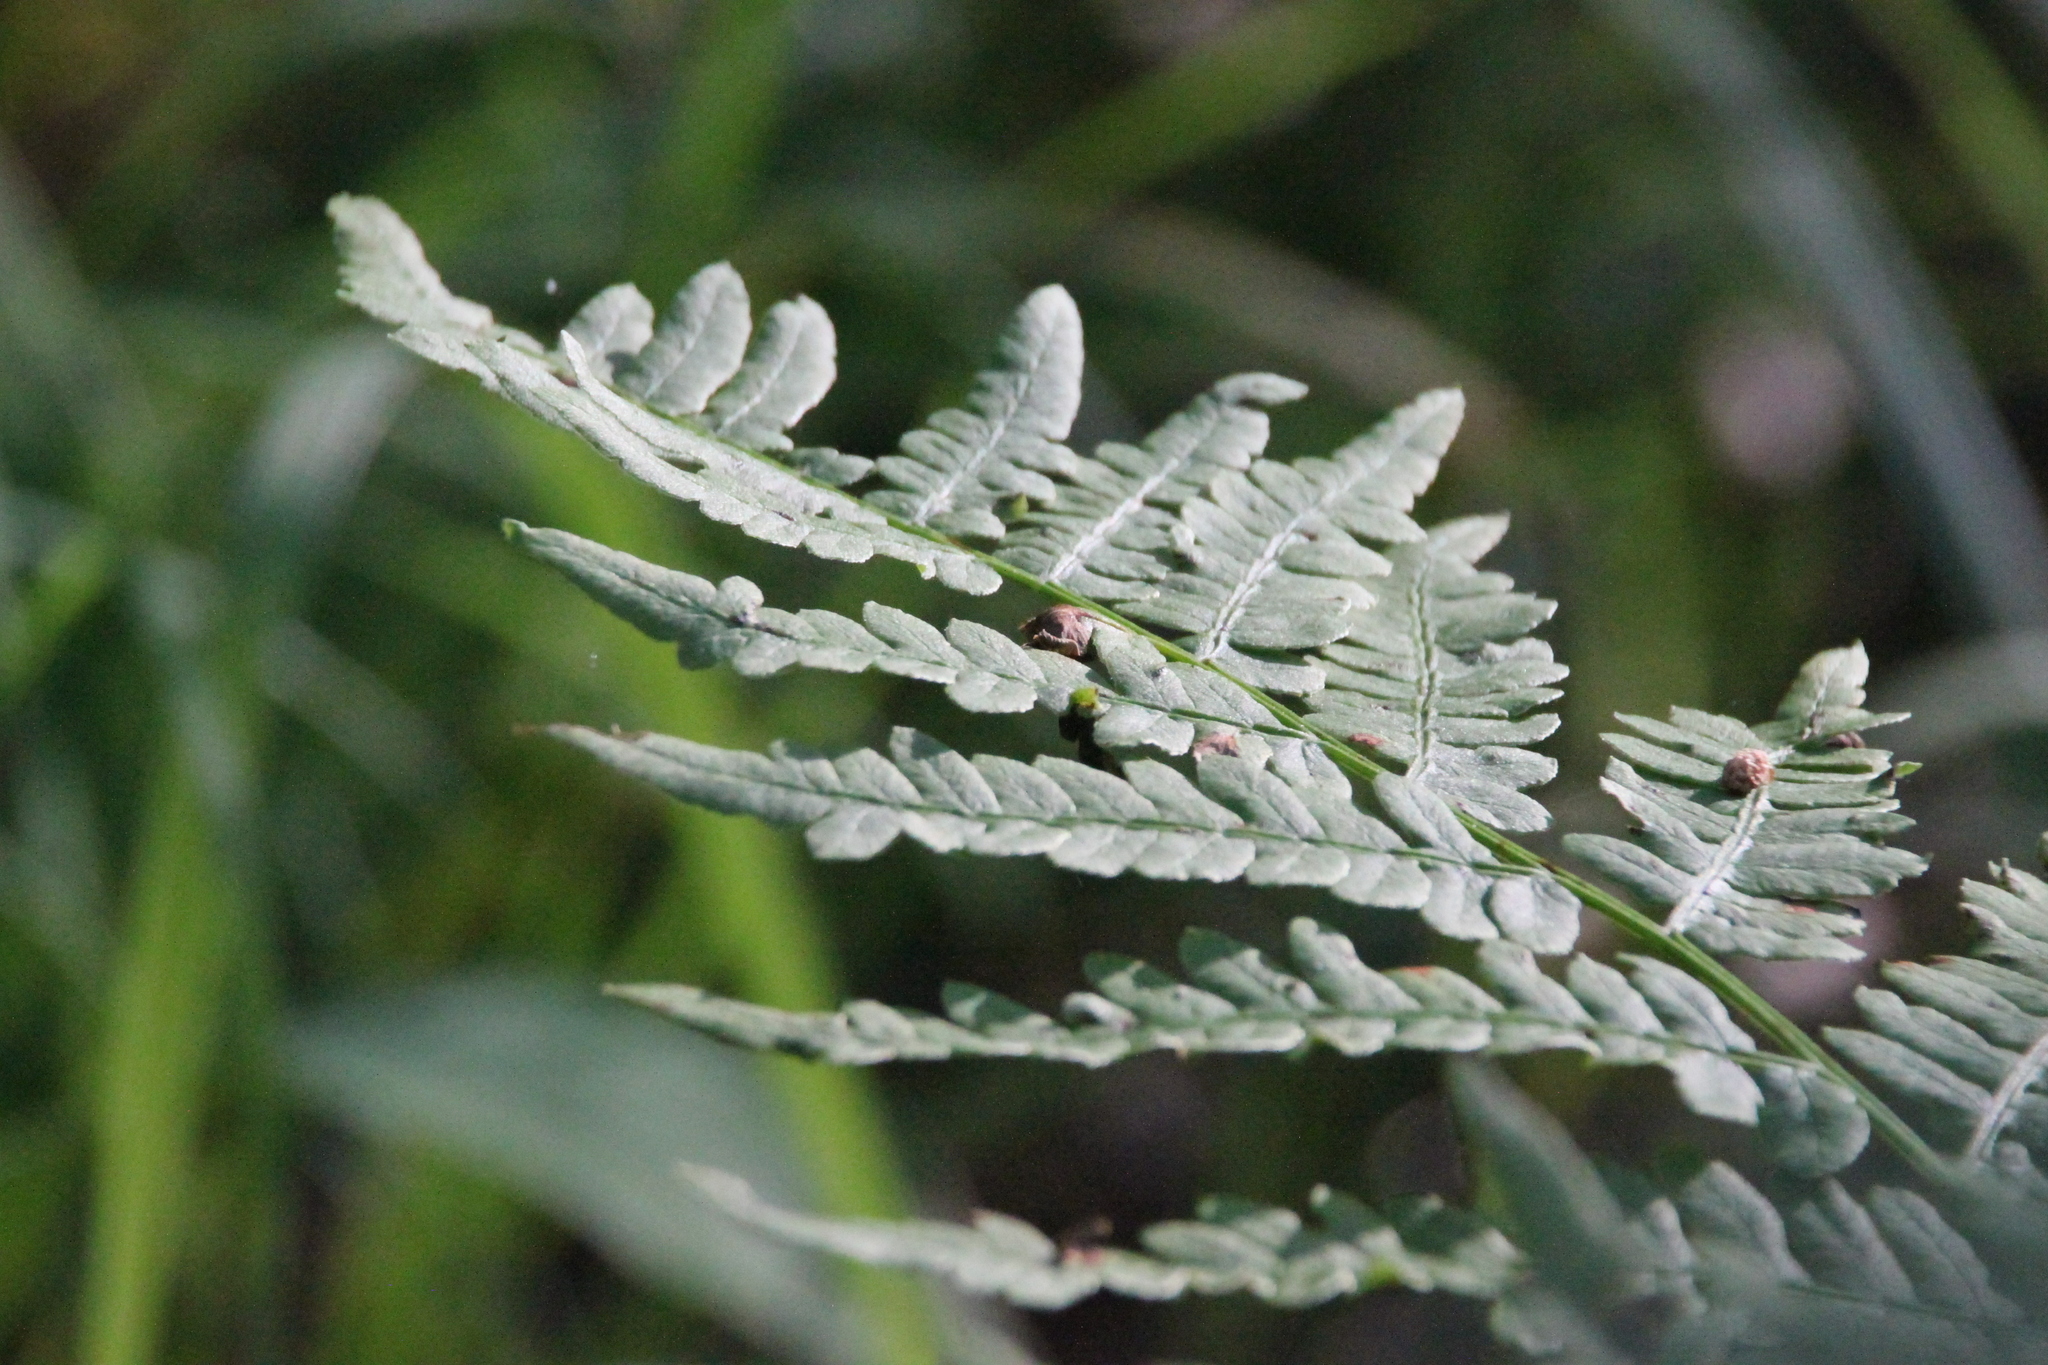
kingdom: Plantae
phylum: Tracheophyta
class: Polypodiopsida
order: Polypodiales
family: Dennstaedtiaceae
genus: Pteridium
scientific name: Pteridium aquilinum
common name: Bracken
